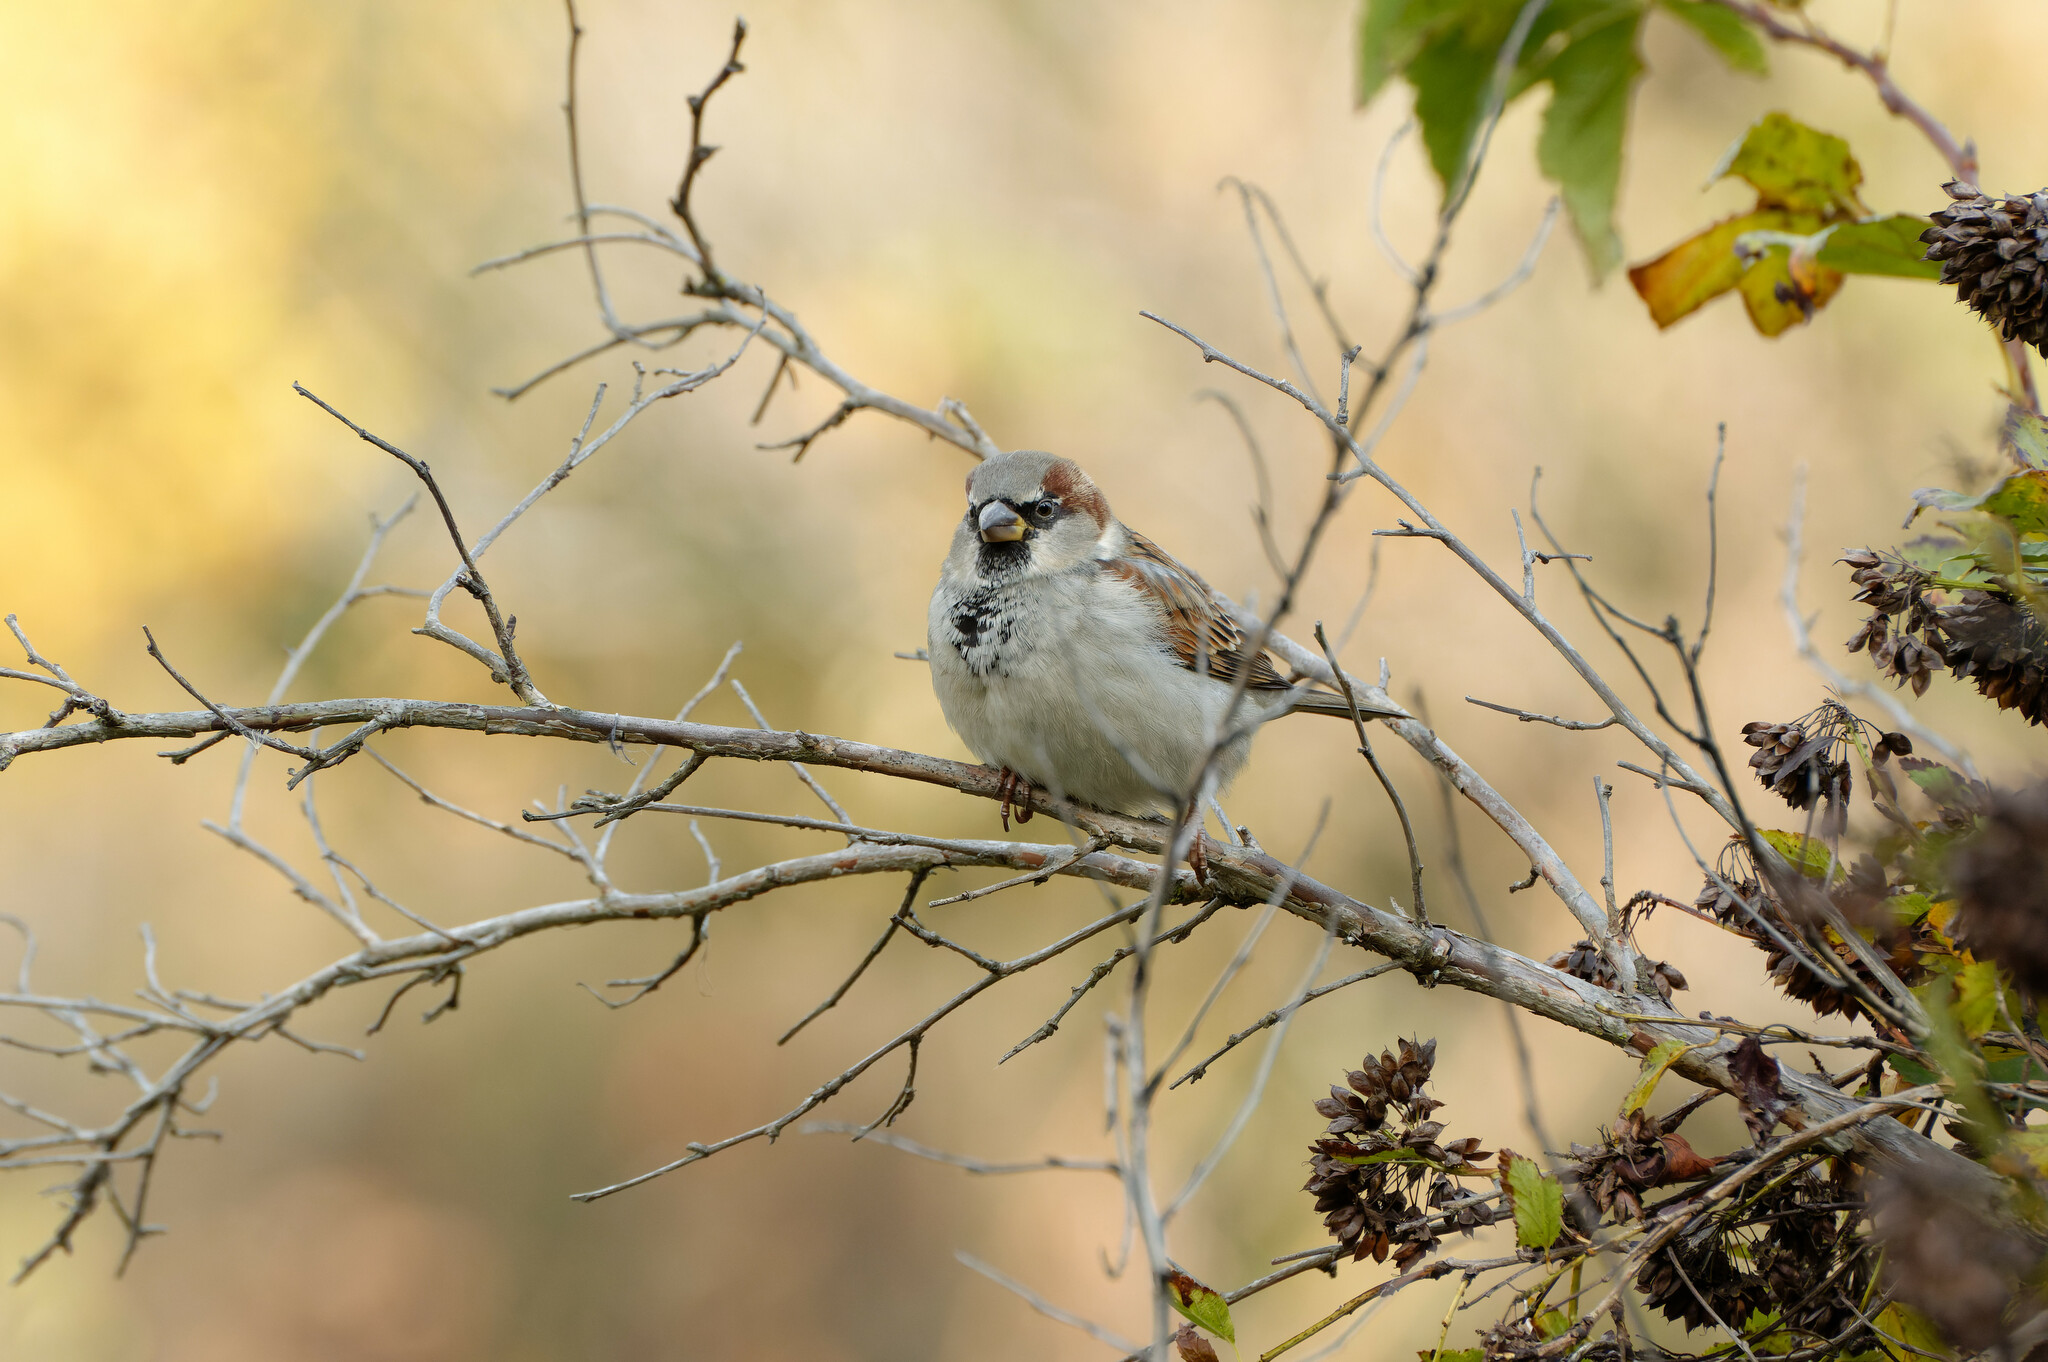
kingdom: Animalia
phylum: Chordata
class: Aves
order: Passeriformes
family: Passeridae
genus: Passer
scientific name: Passer domesticus
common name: House sparrow
